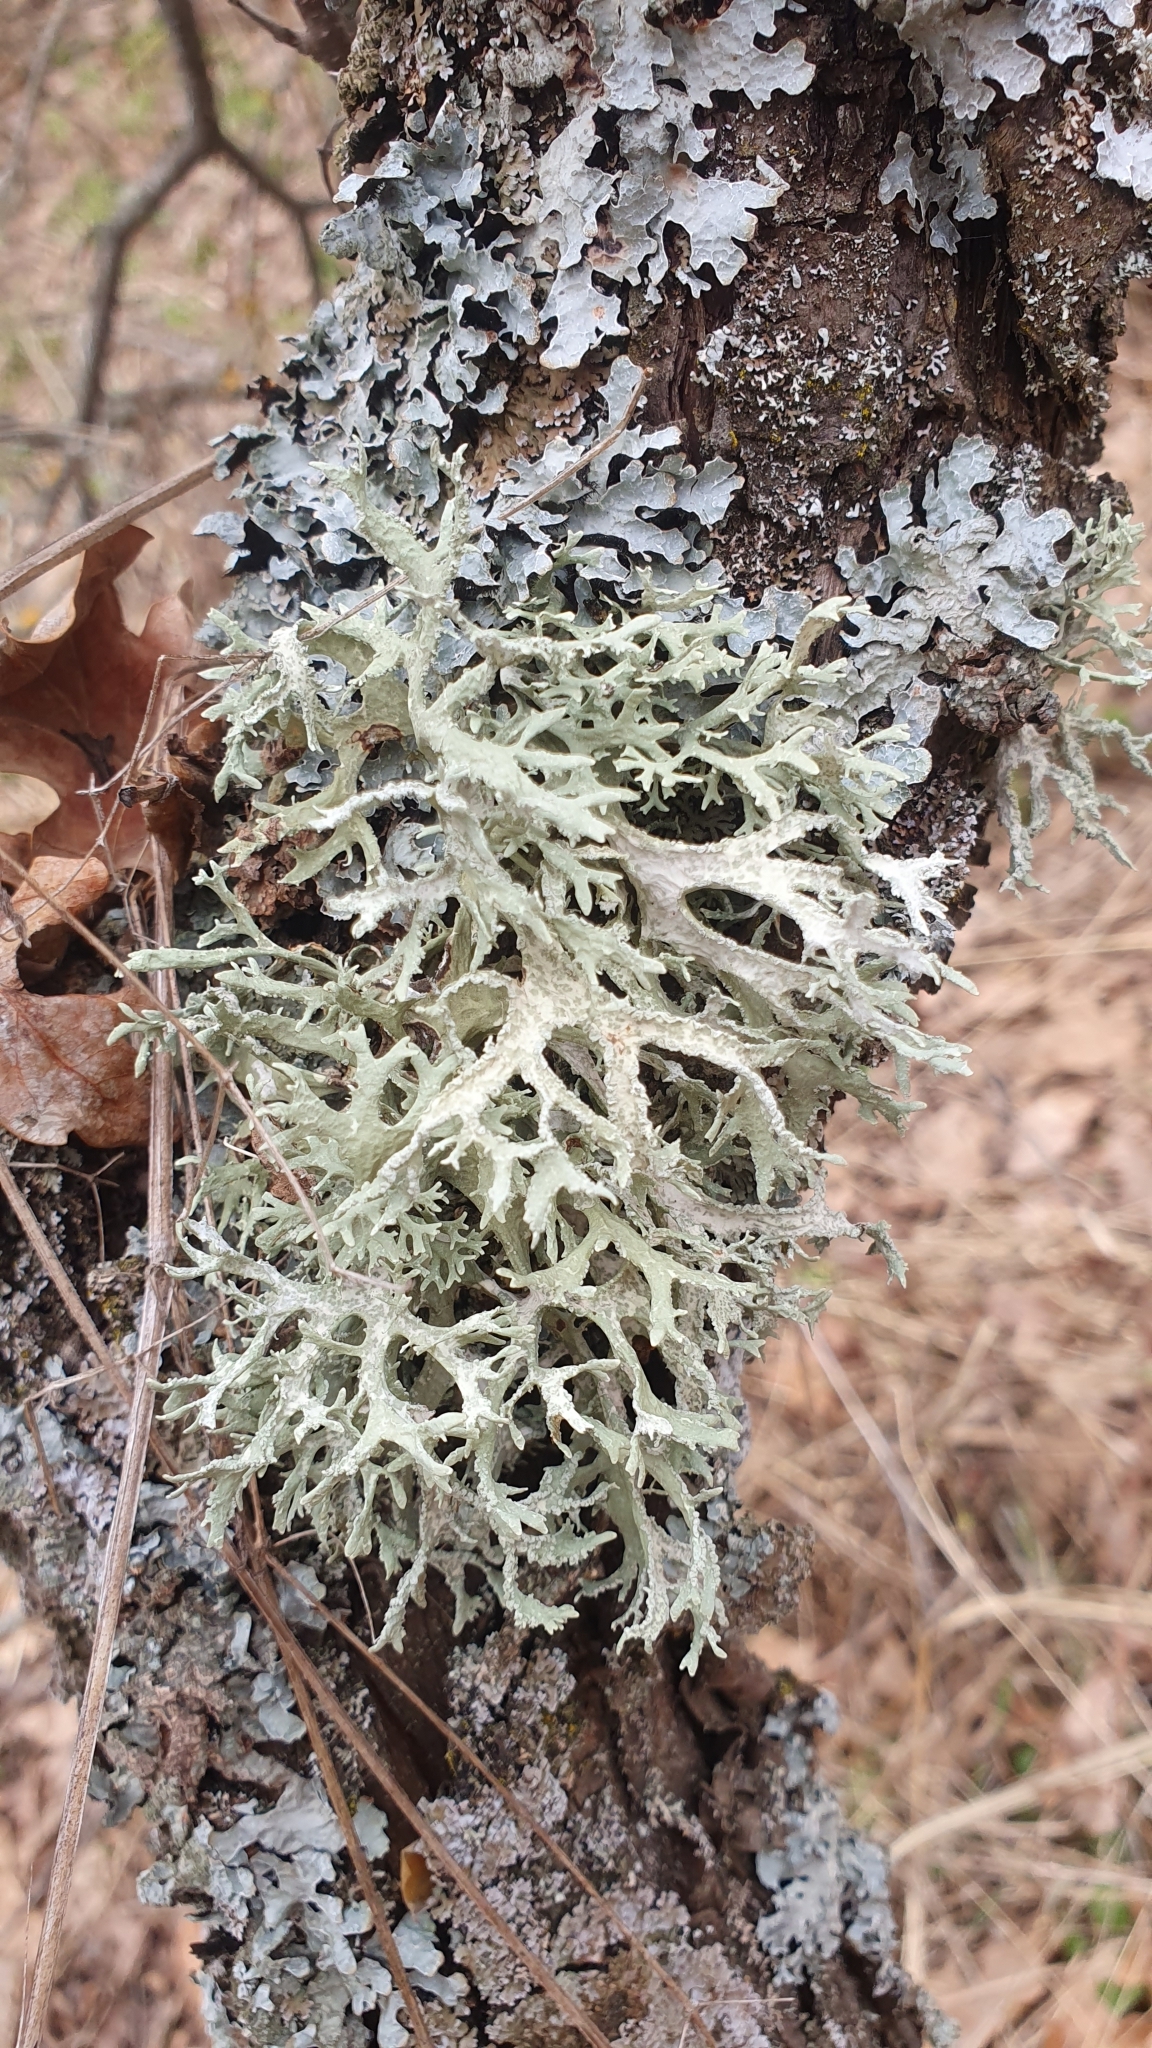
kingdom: Fungi
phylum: Ascomycota
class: Lecanoromycetes
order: Lecanorales
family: Parmeliaceae
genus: Evernia
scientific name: Evernia prunastri
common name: Oak moss
